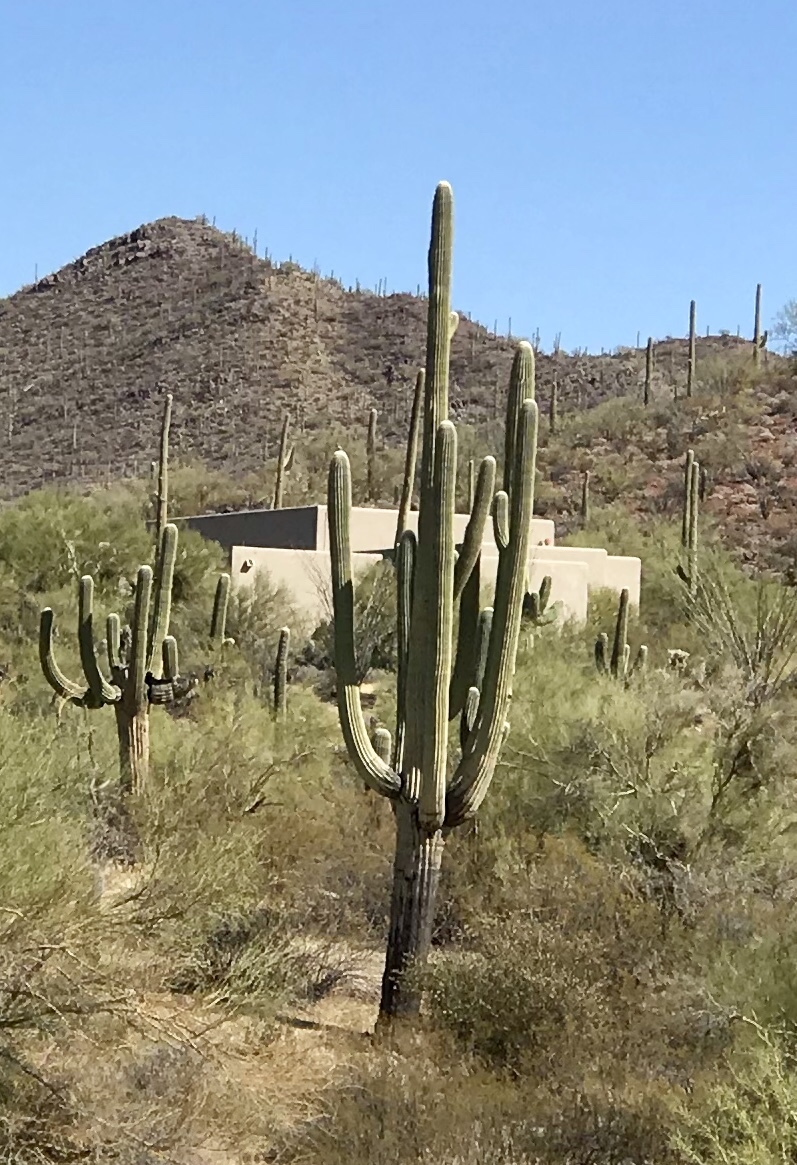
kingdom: Plantae
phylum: Tracheophyta
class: Magnoliopsida
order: Caryophyllales
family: Cactaceae
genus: Carnegiea
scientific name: Carnegiea gigantea
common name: Saguaro
